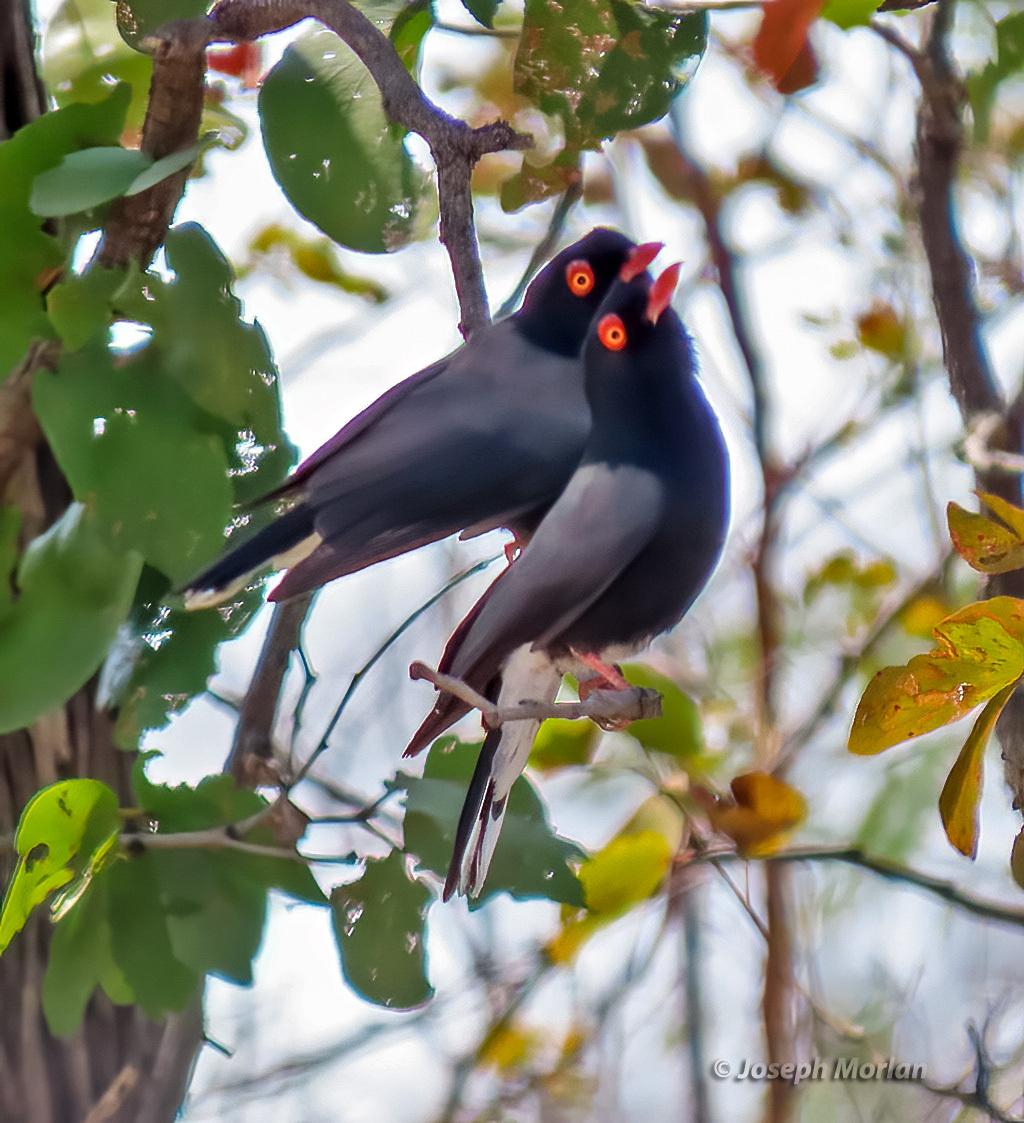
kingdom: Animalia
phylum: Chordata
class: Aves
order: Passeriformes
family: Prionopidae
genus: Prionops
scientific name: Prionops retzii
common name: Retz's helmetshrike
